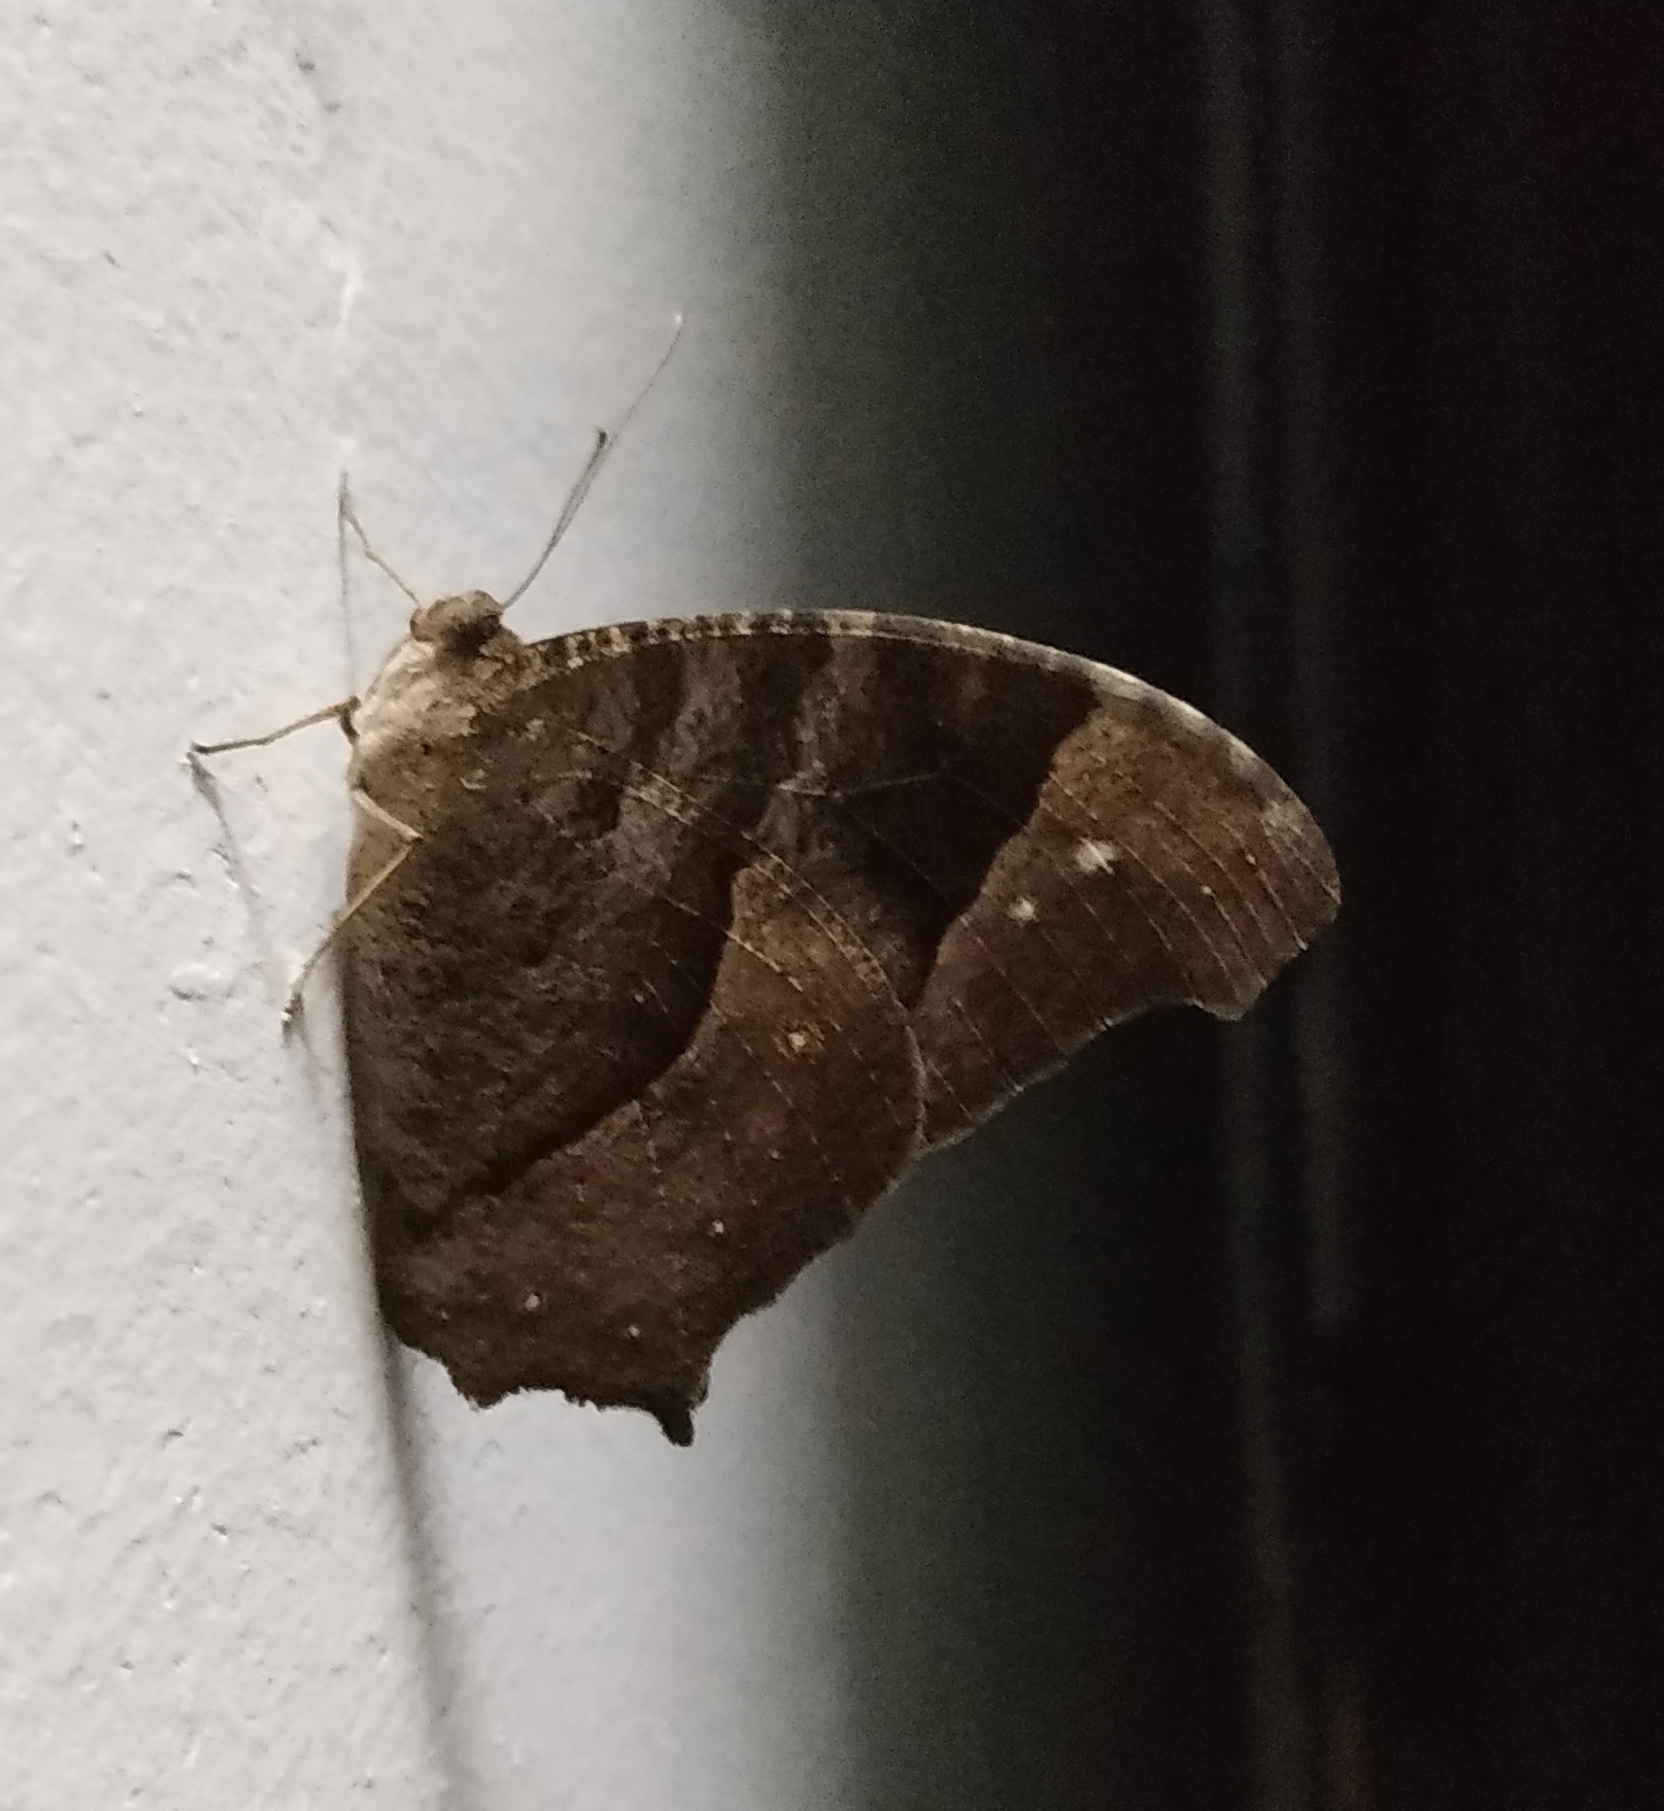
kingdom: Animalia
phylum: Arthropoda
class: Insecta
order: Lepidoptera
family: Nymphalidae
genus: Melanitis
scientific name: Melanitis leda
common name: Twilight brown
